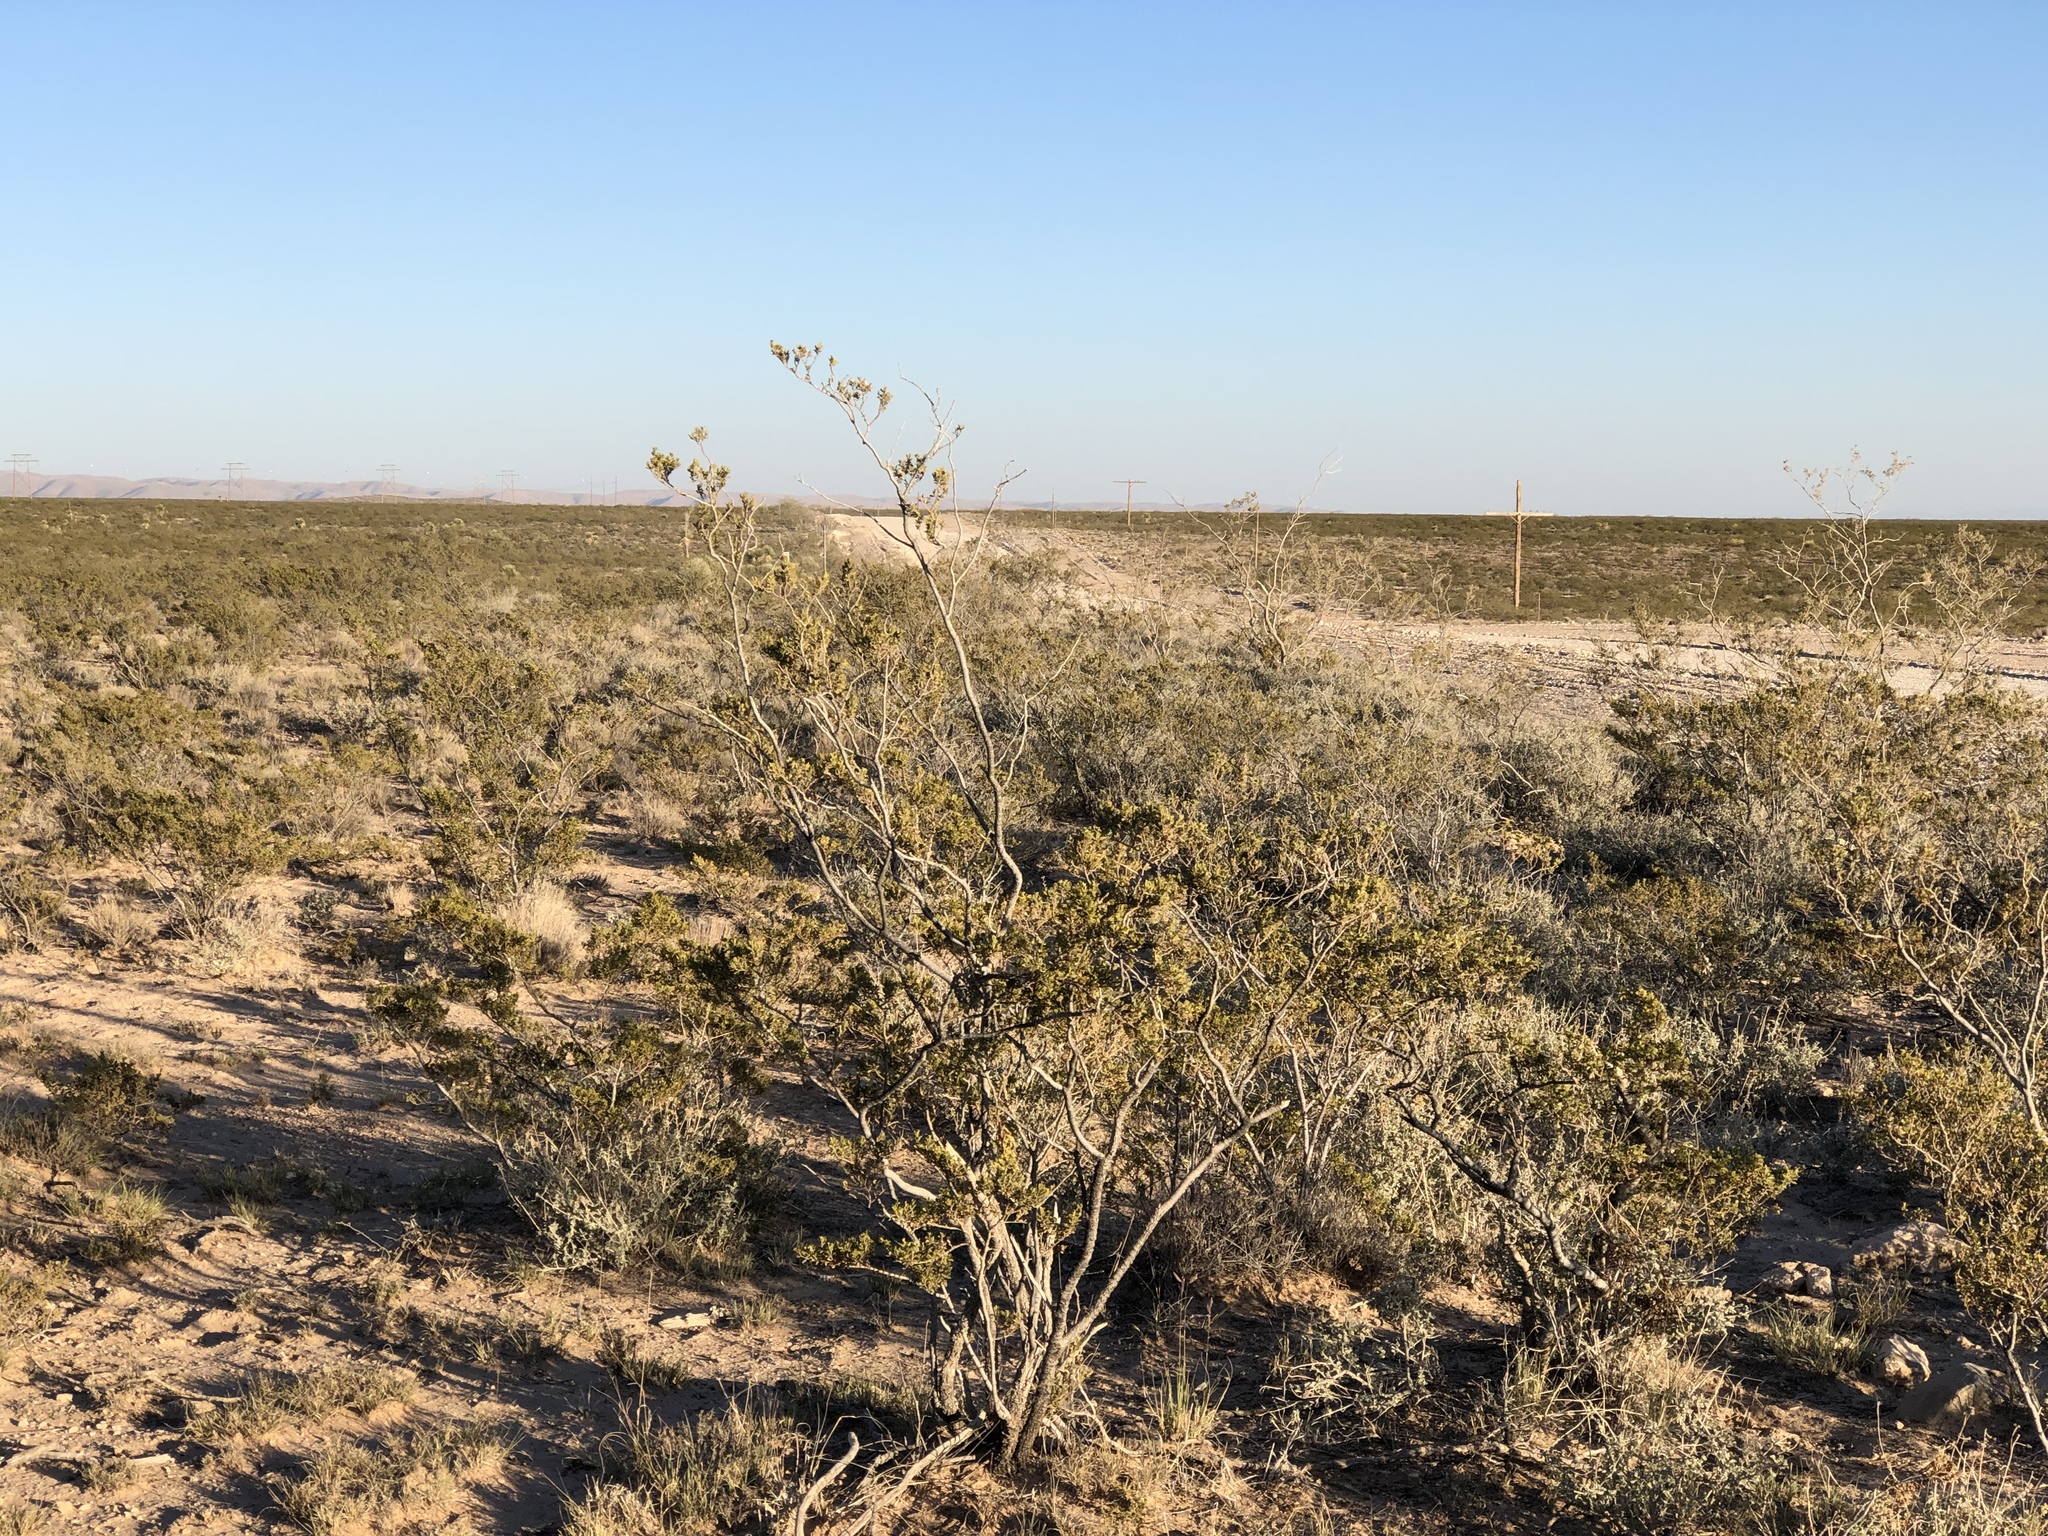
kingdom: Plantae
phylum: Tracheophyta
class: Magnoliopsida
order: Zygophyllales
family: Zygophyllaceae
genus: Larrea
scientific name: Larrea tridentata
